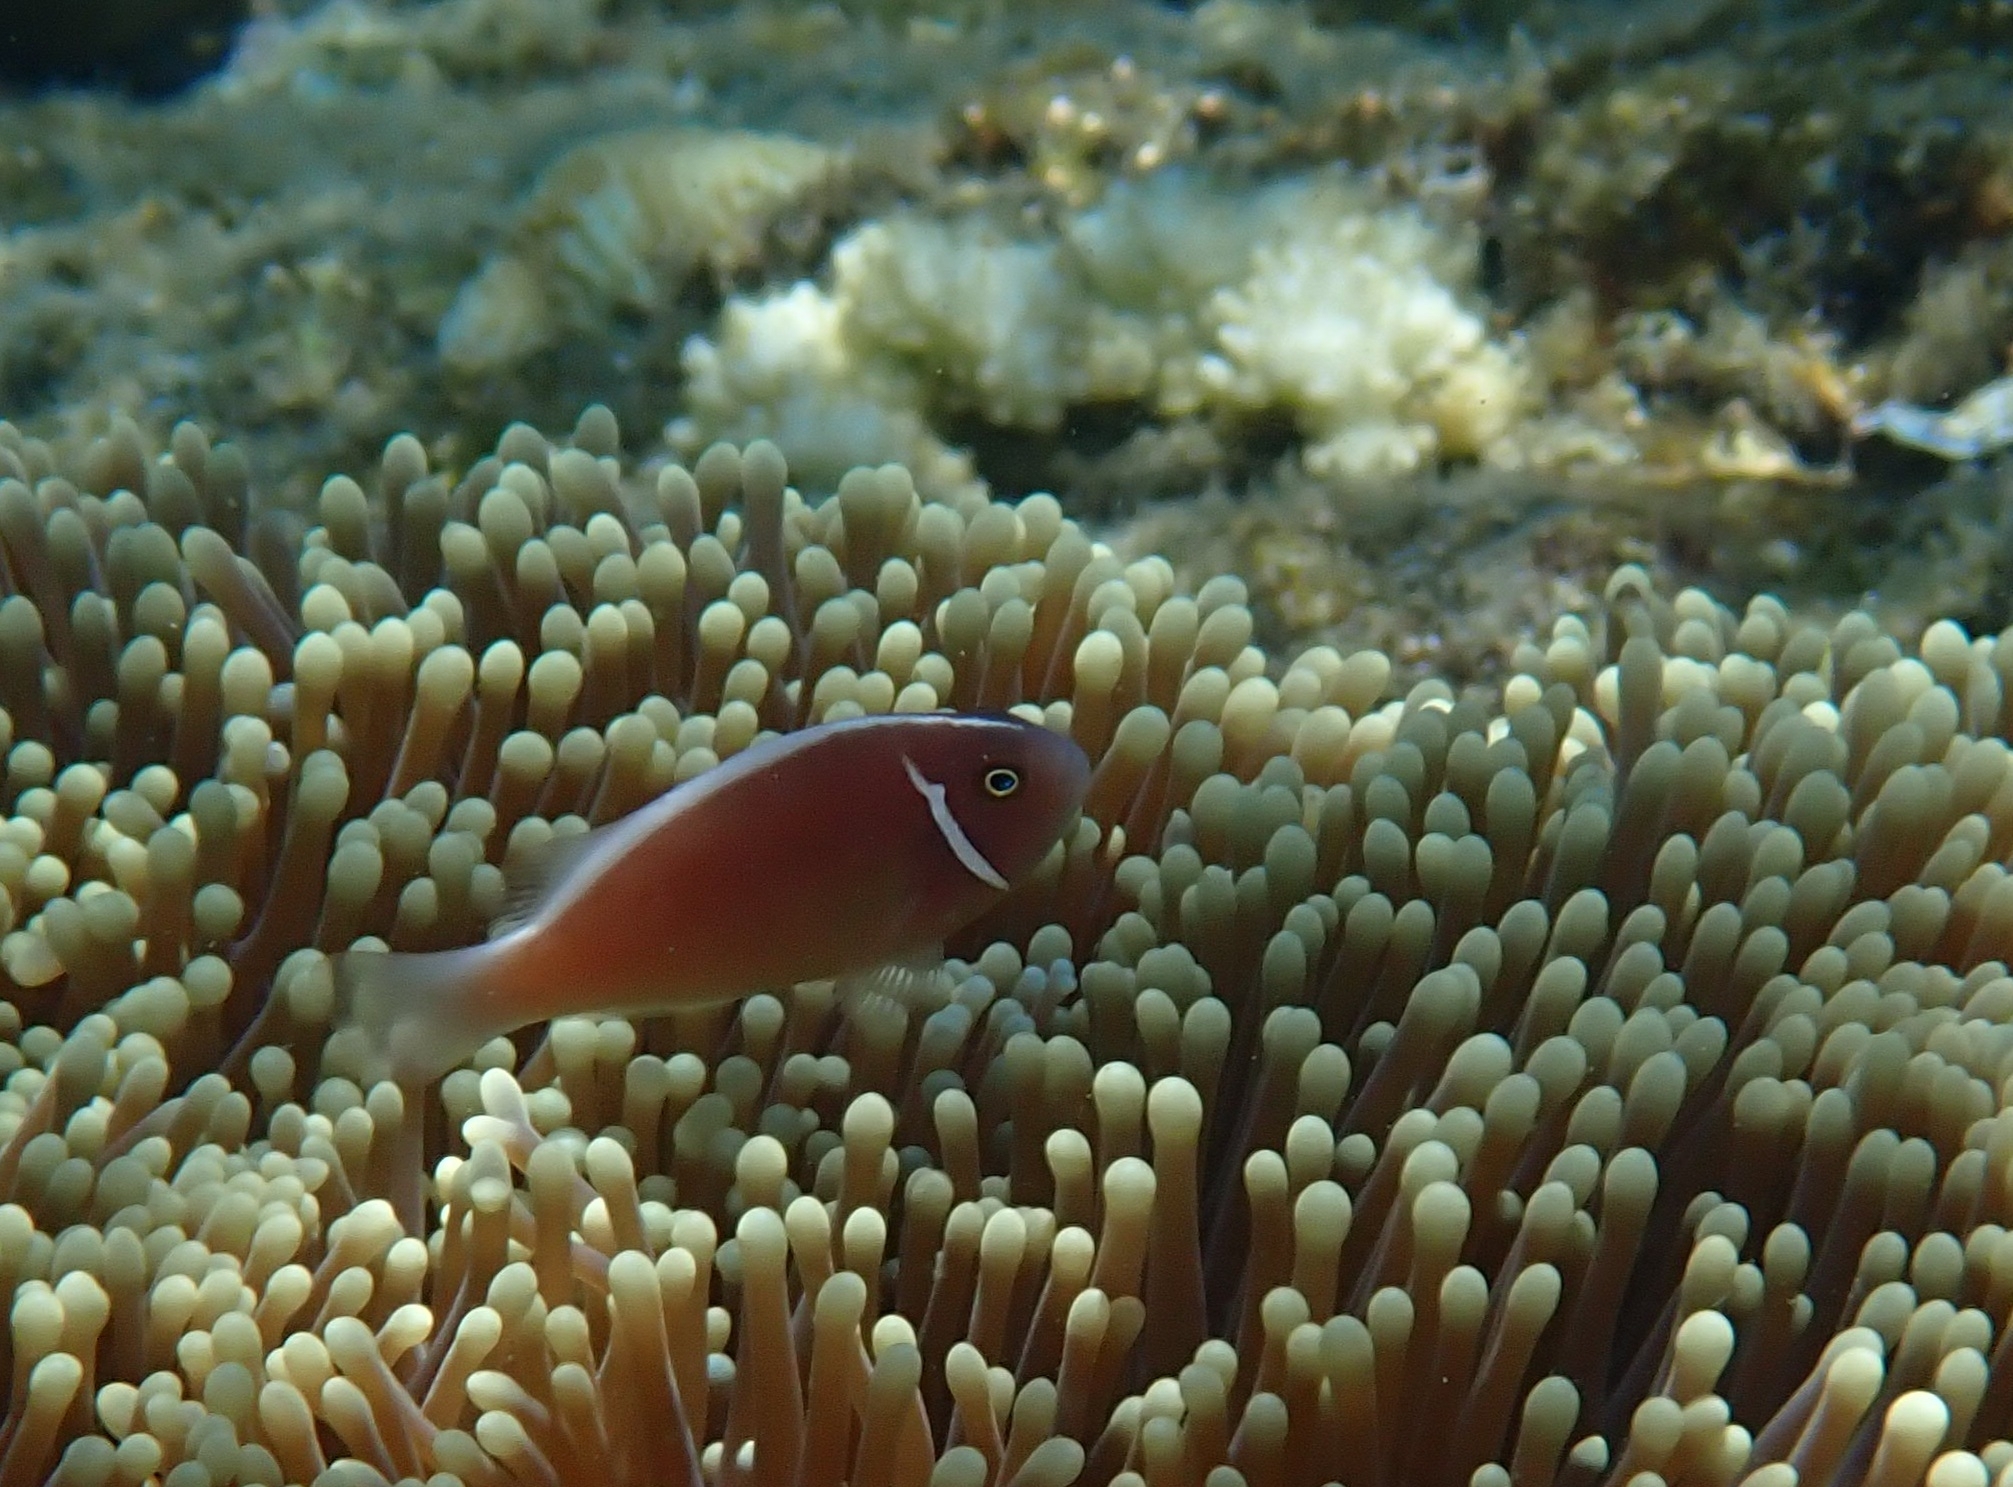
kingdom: Animalia
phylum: Chordata
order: Perciformes
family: Pomacentridae
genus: Amphiprion
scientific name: Amphiprion perideraion
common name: Pink anemonefish
